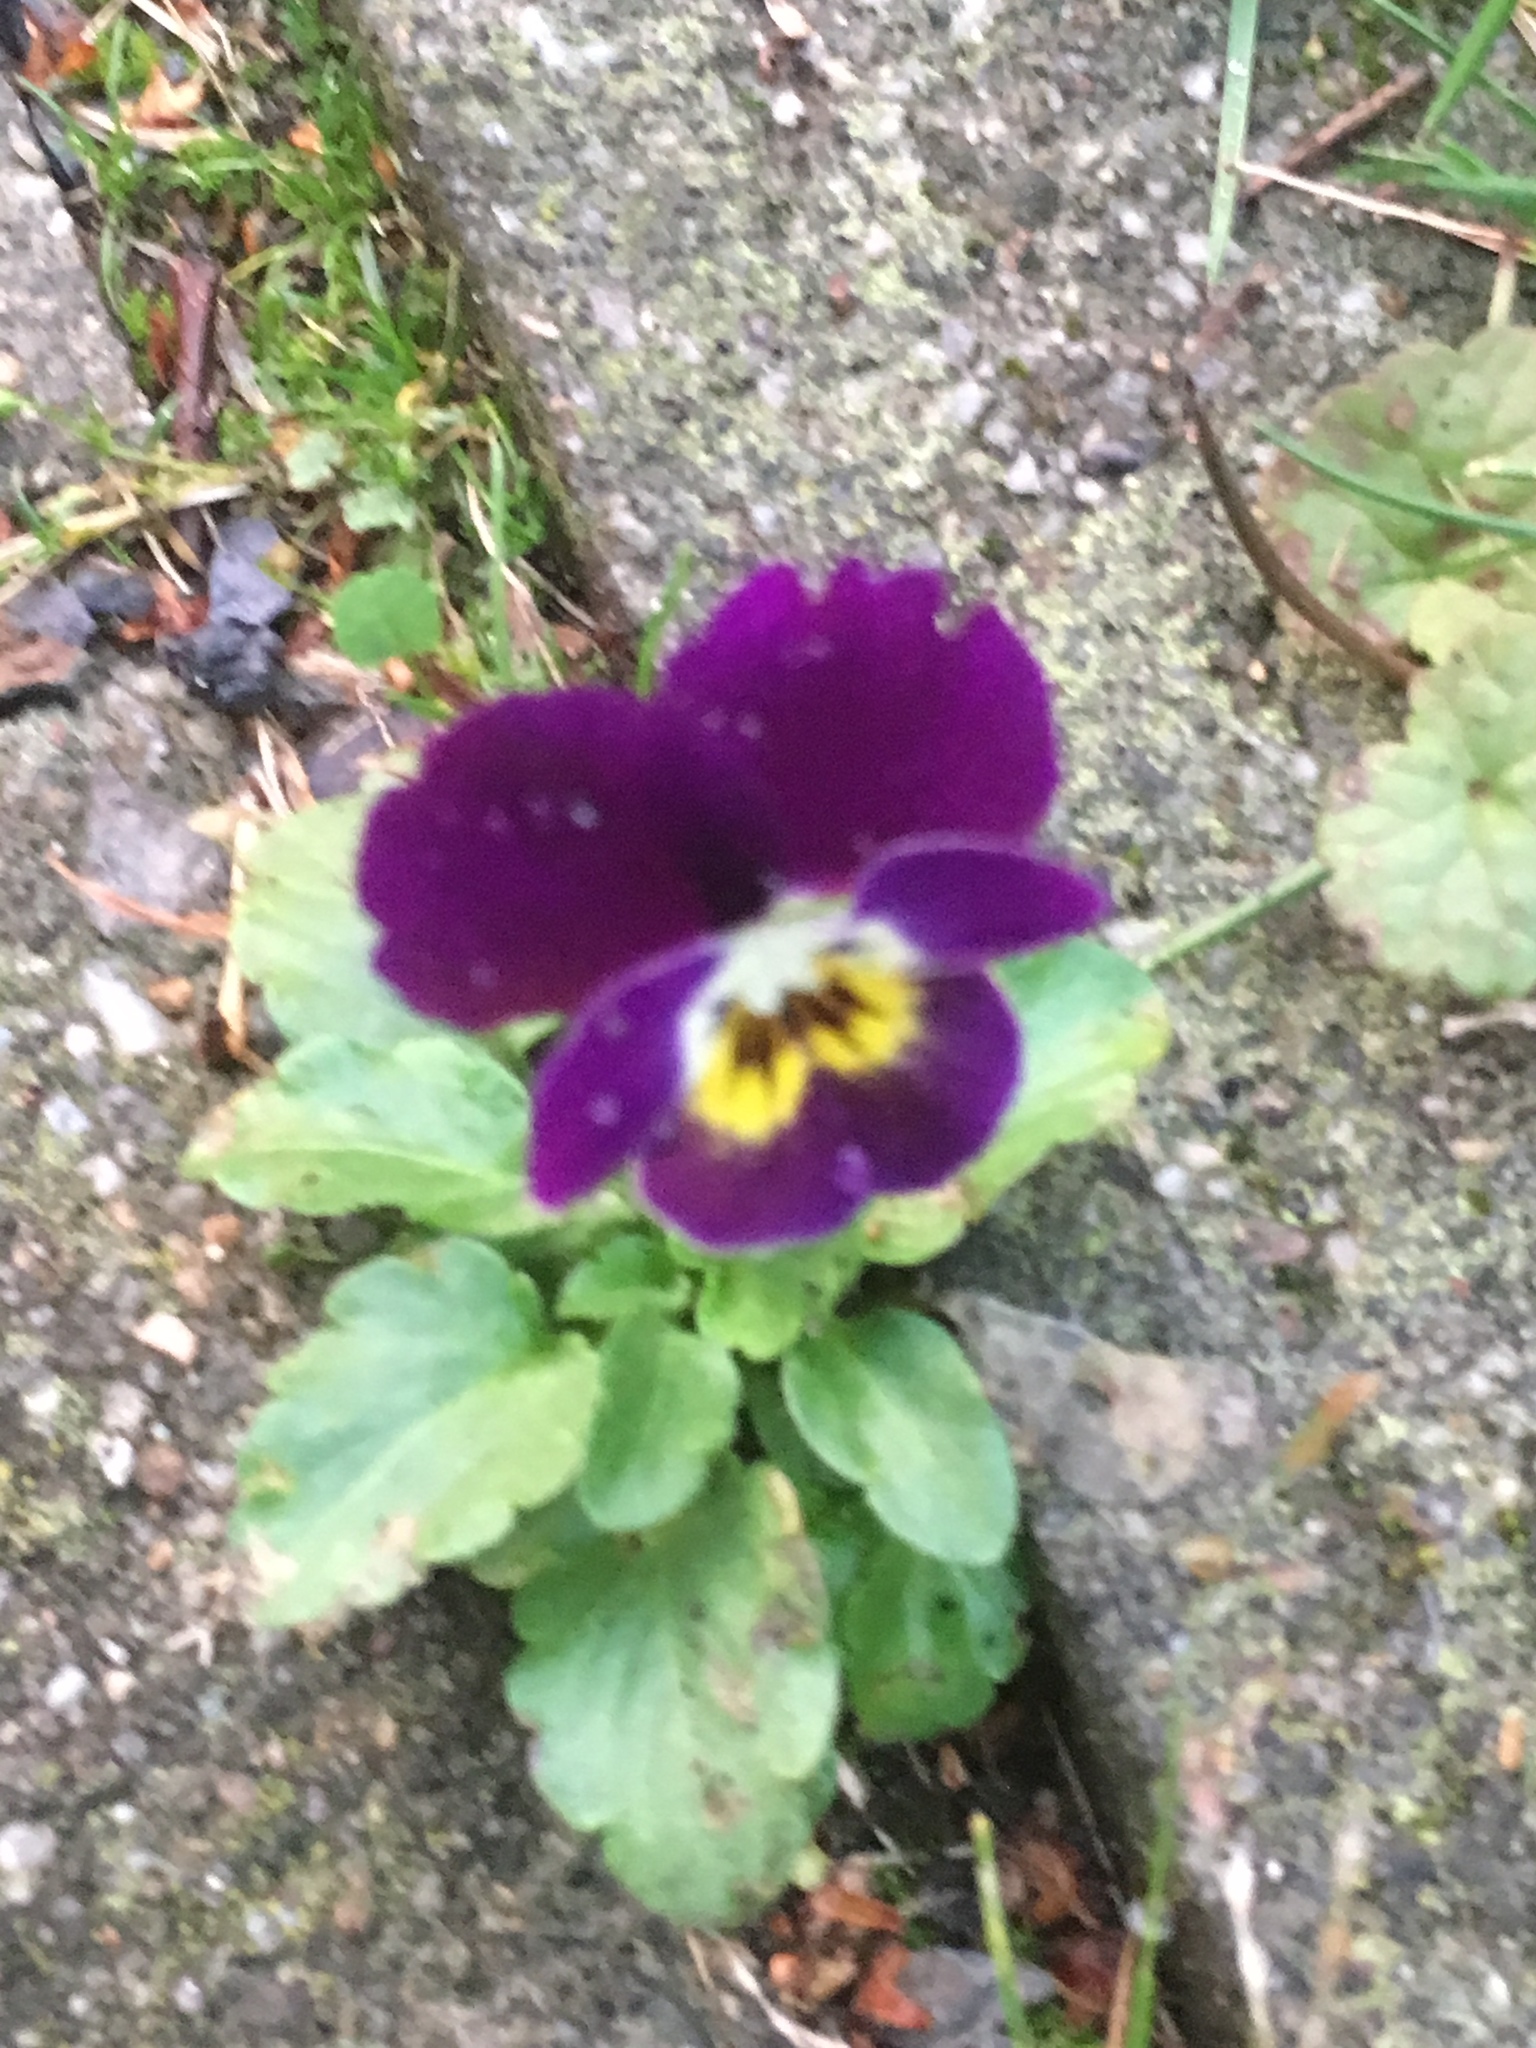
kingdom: Plantae
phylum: Tracheophyta
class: Magnoliopsida
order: Malpighiales
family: Violaceae
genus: Viola
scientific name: Viola wittrockiana
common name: Garden pansy
